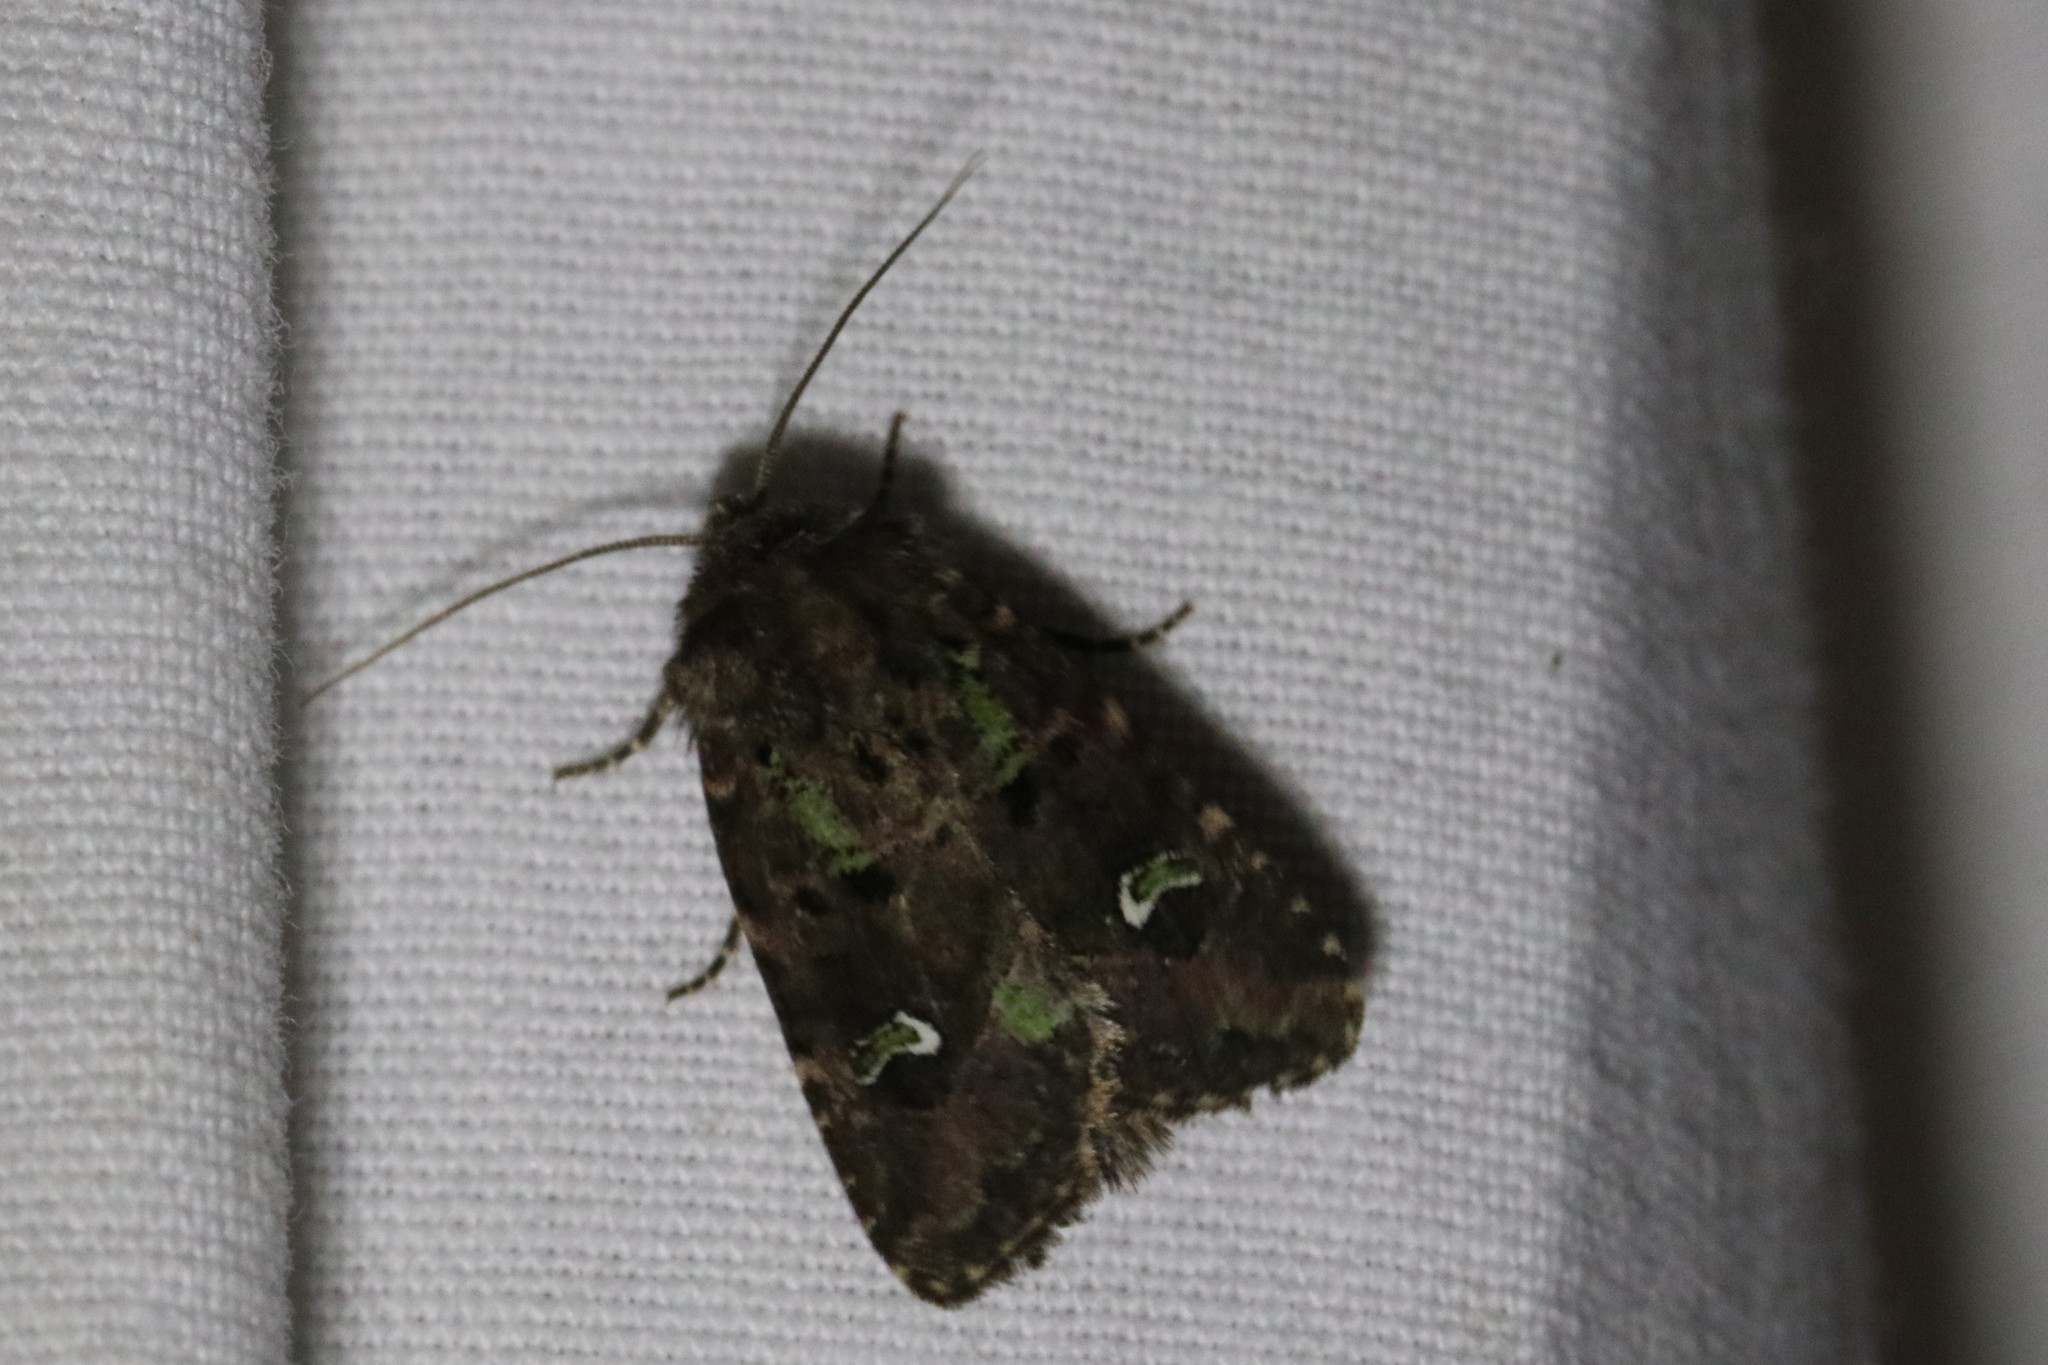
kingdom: Animalia
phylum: Arthropoda
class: Insecta
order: Lepidoptera
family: Noctuidae
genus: Lacinipolia
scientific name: Lacinipolia renigera
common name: Kidney-spotted minor
